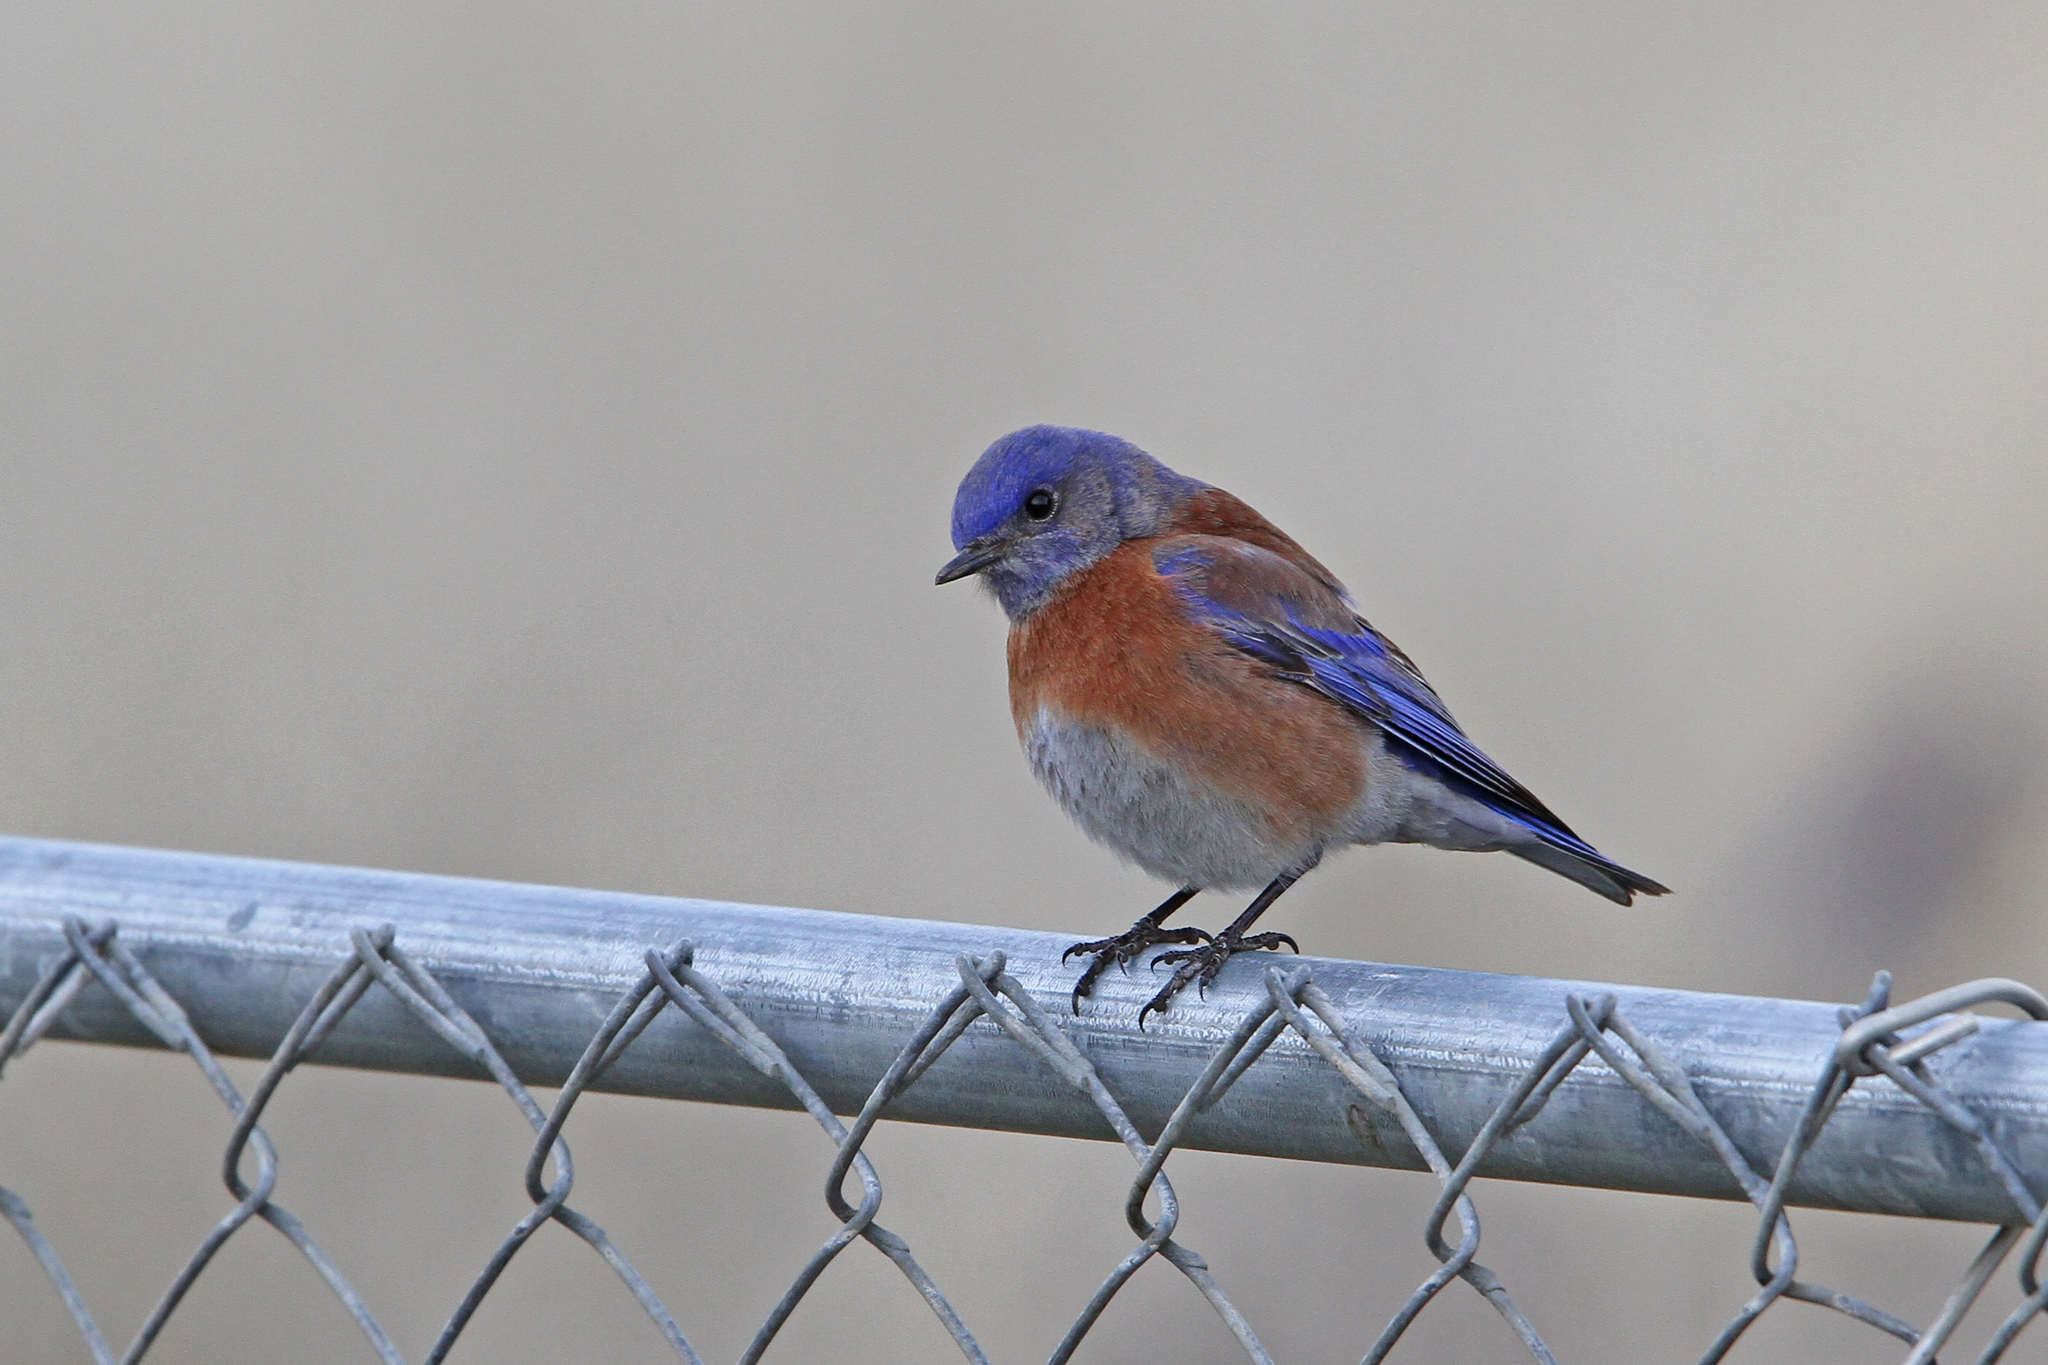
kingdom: Animalia
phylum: Chordata
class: Aves
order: Passeriformes
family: Turdidae
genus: Sialia
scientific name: Sialia mexicana
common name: Western bluebird
